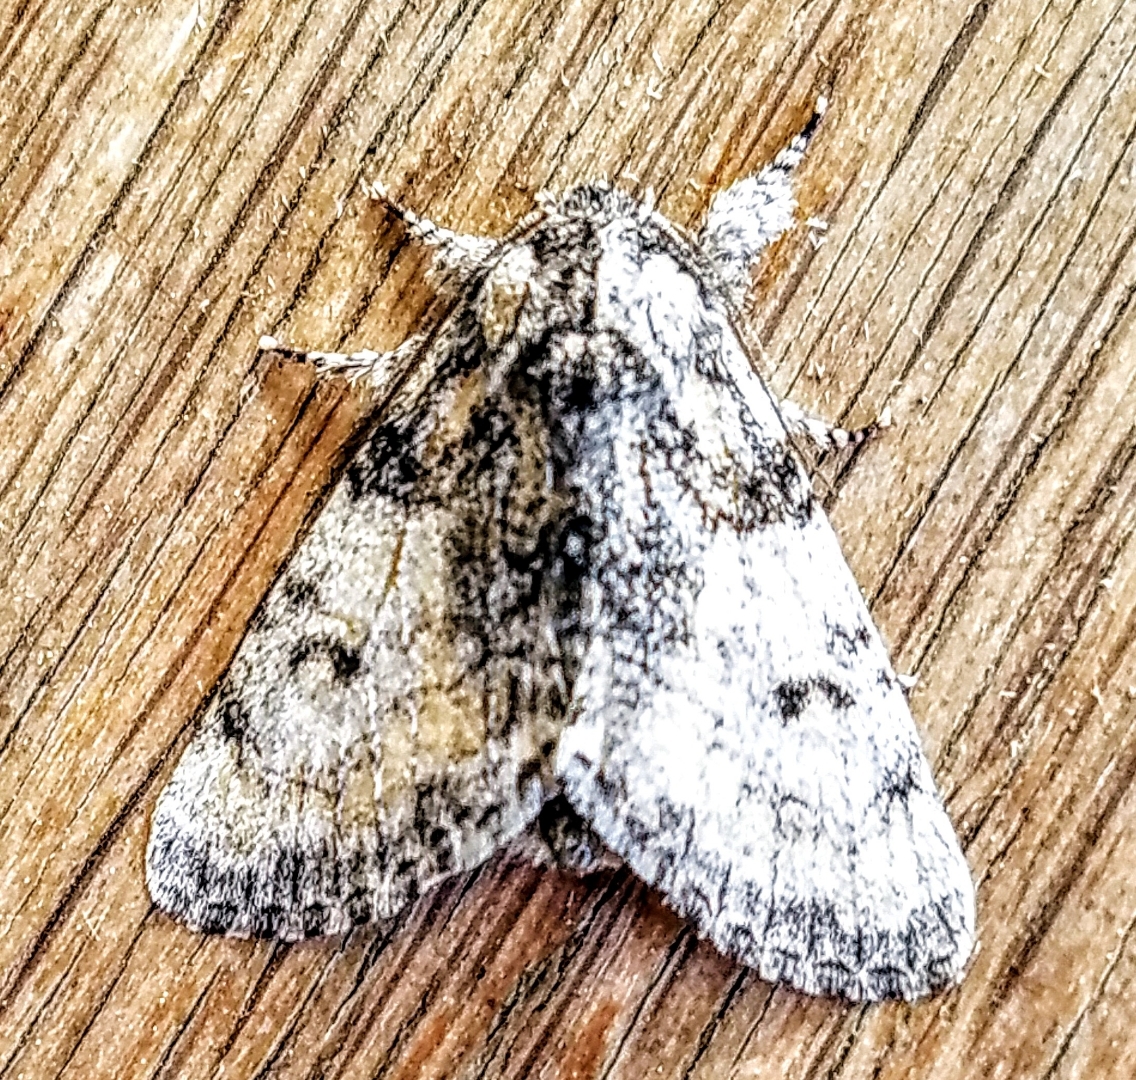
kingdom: Animalia
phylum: Arthropoda
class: Insecta
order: Lepidoptera
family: Noctuidae
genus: Raphia
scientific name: Raphia frater
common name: Brother
